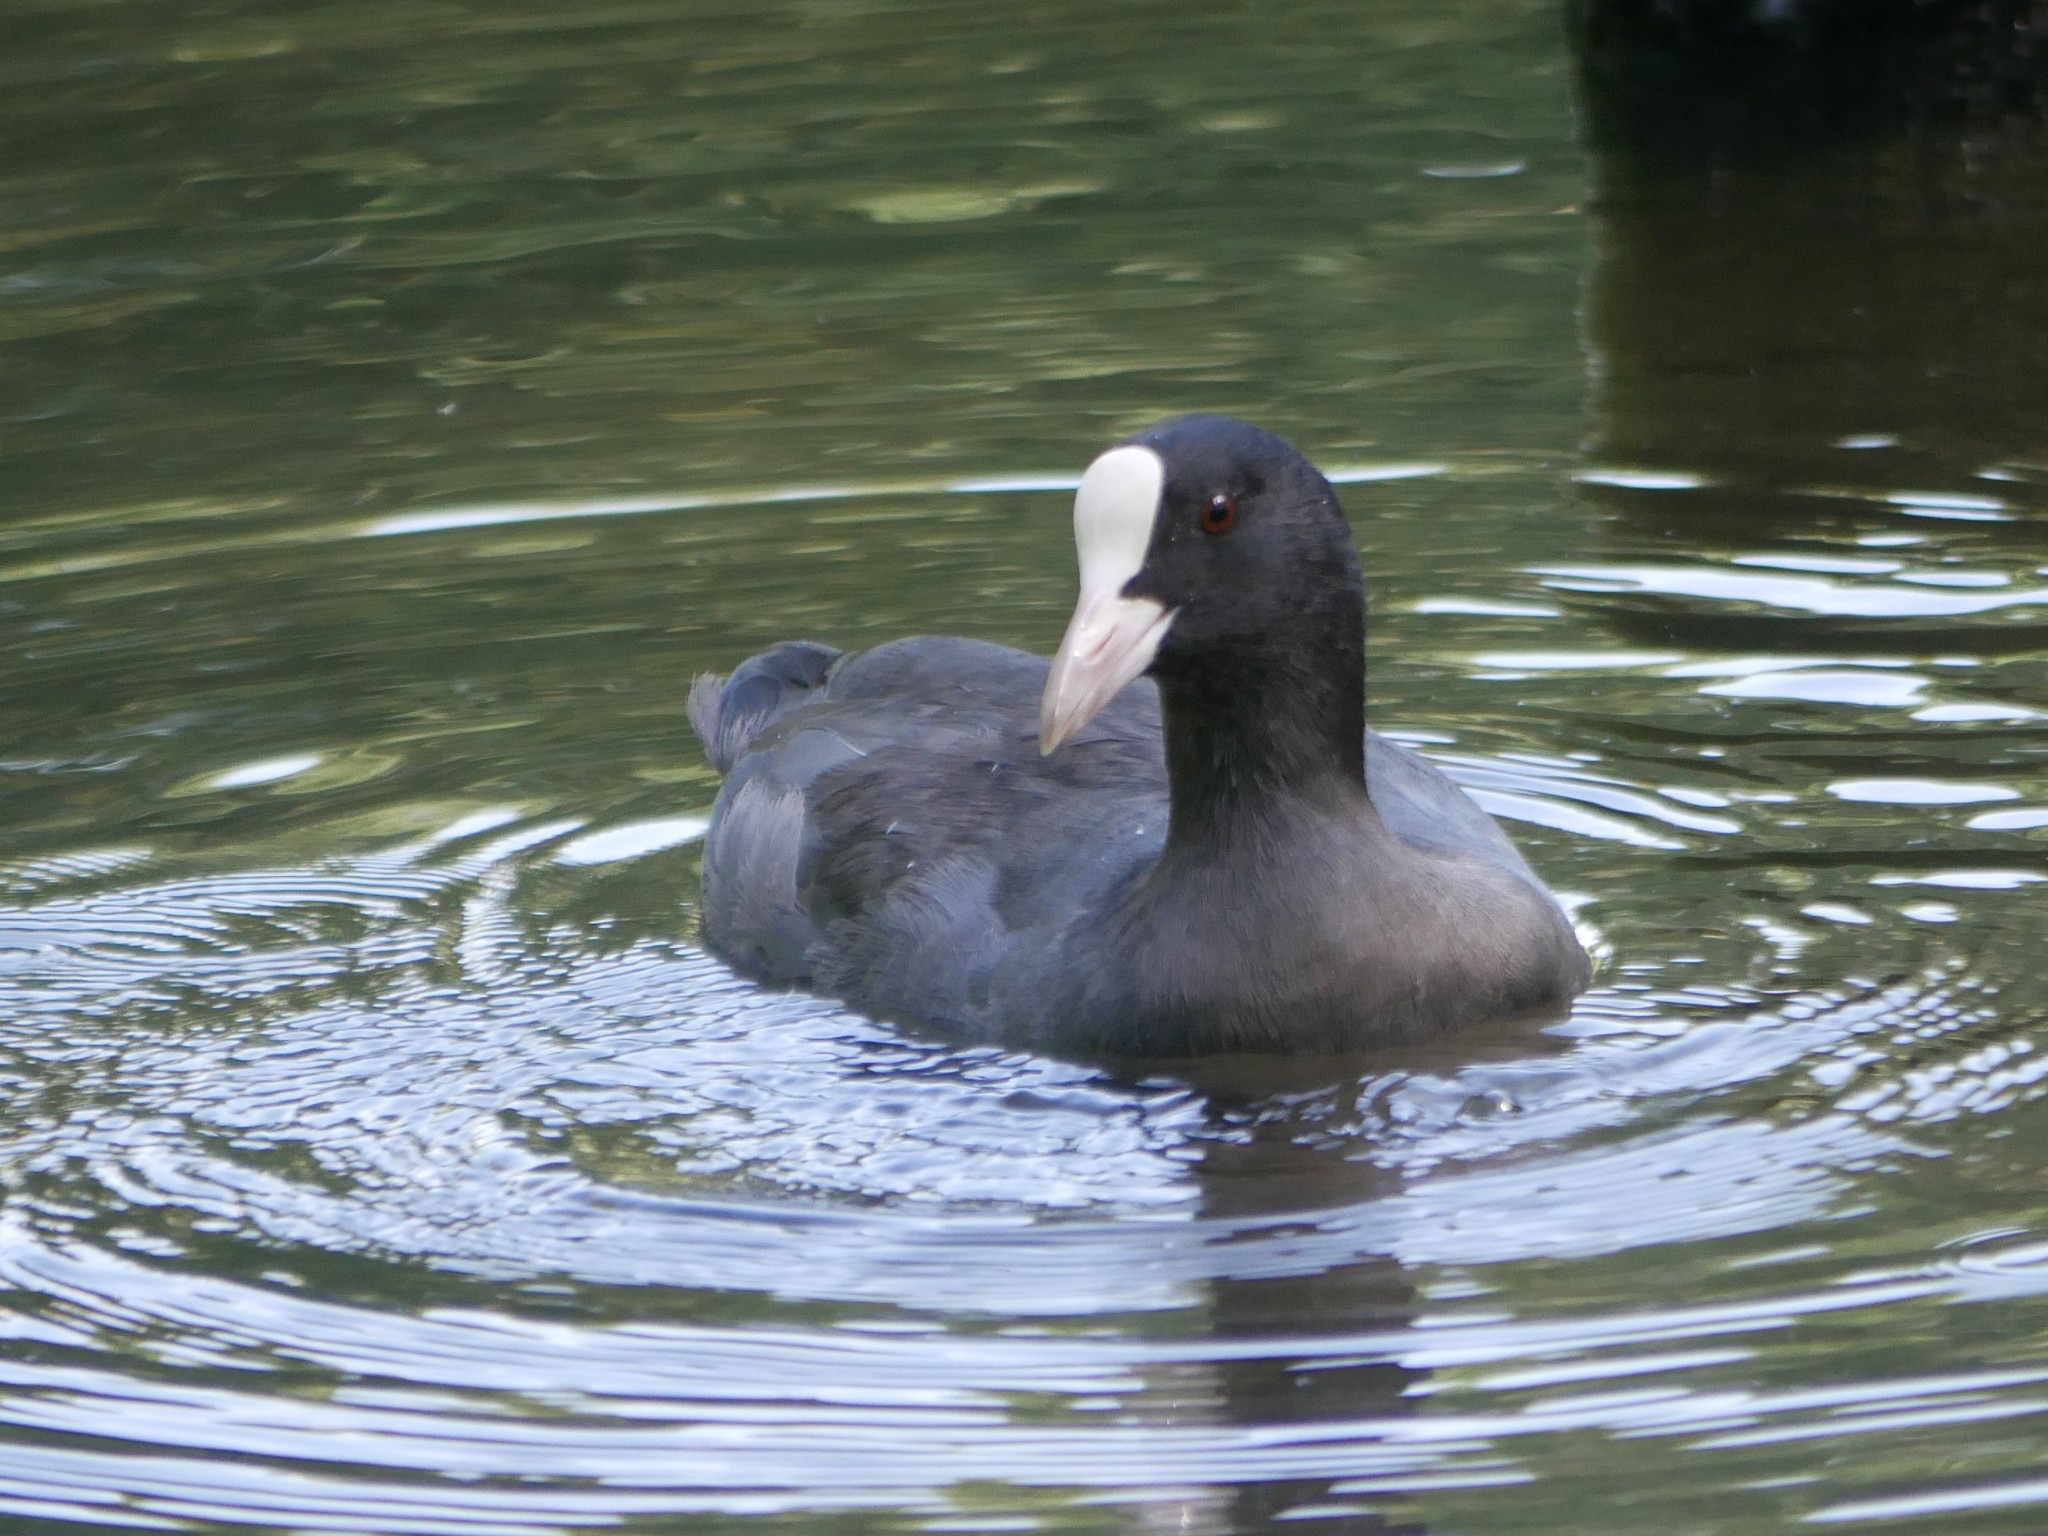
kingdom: Animalia
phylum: Chordata
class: Aves
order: Gruiformes
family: Rallidae
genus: Fulica
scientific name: Fulica atra
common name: Eurasian coot
